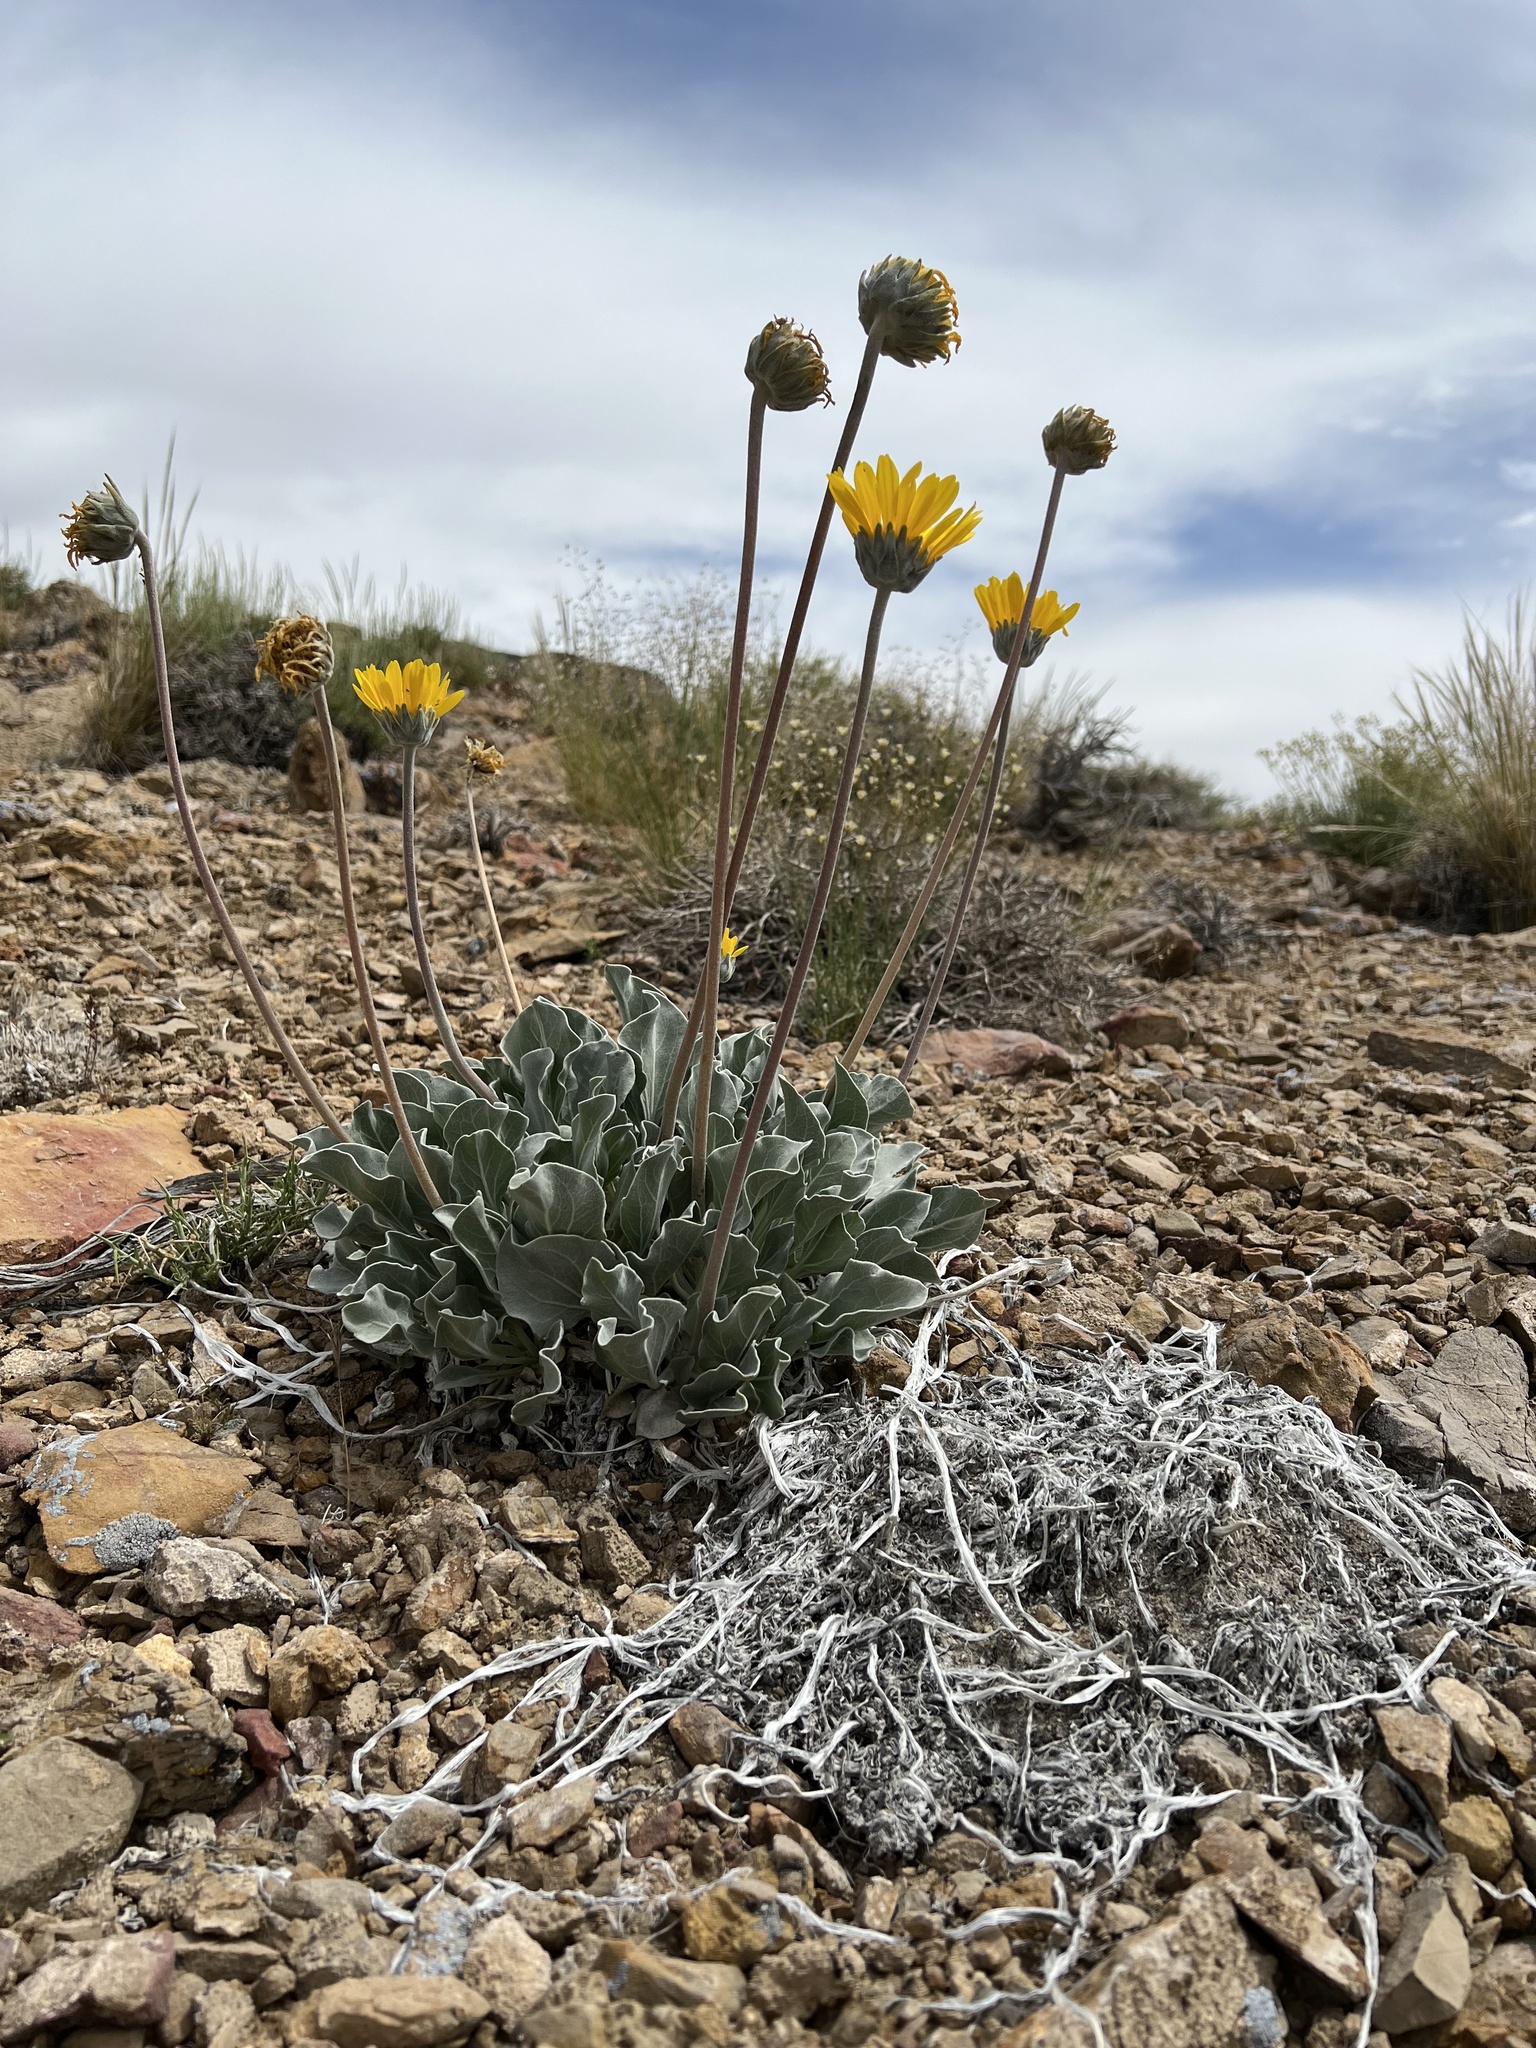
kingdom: Plantae
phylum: Tracheophyta
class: Magnoliopsida
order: Asterales
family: Asteraceae
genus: Enceliopsis
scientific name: Enceliopsis nudicaulis
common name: Naked-stem daisy
